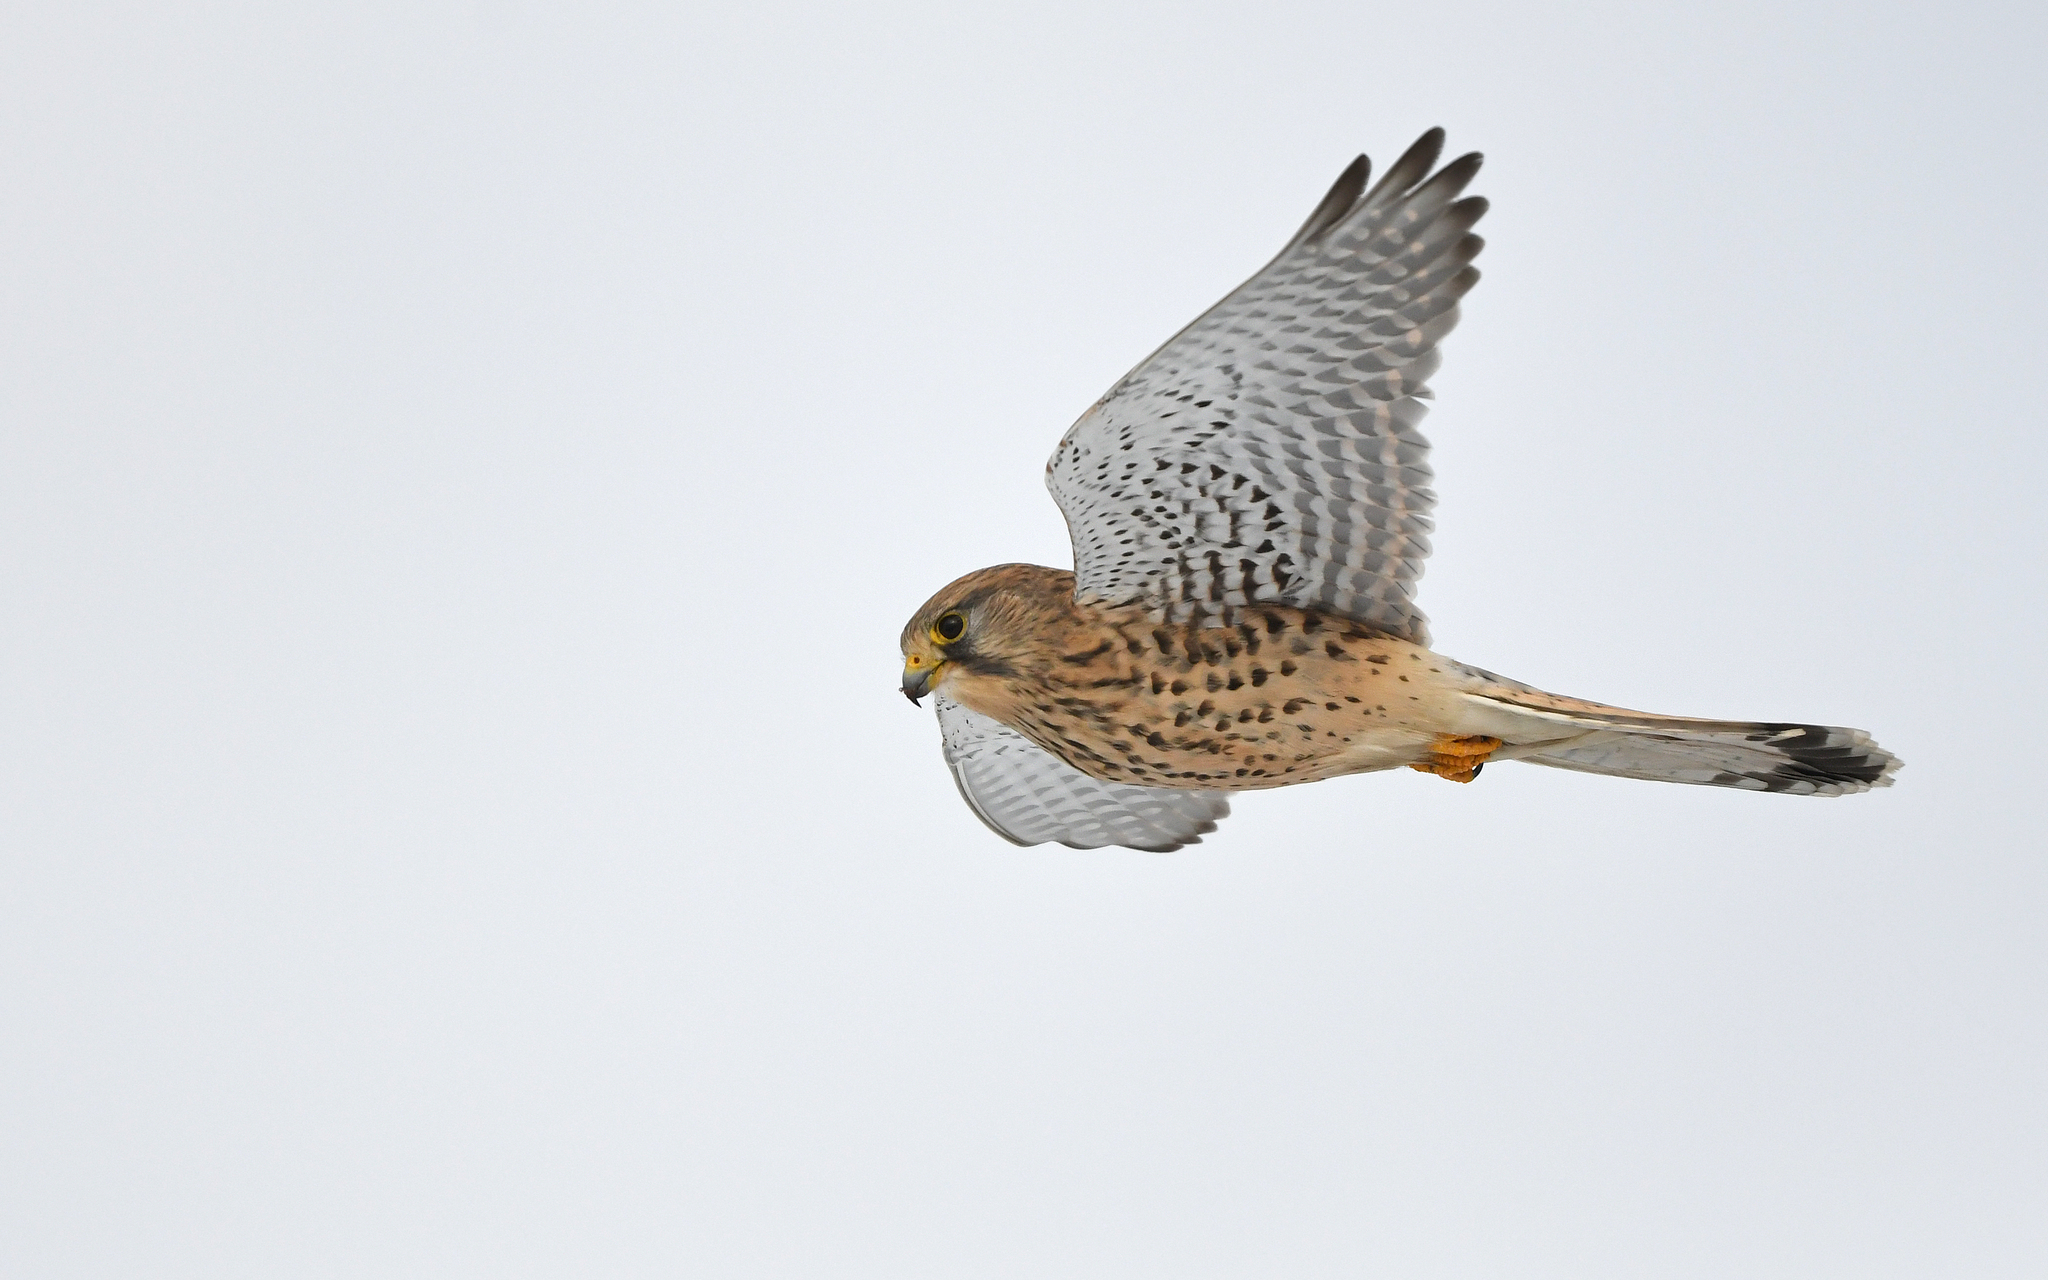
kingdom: Animalia
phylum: Chordata
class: Aves
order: Falconiformes
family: Falconidae
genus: Falco
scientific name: Falco tinnunculus
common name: Common kestrel
